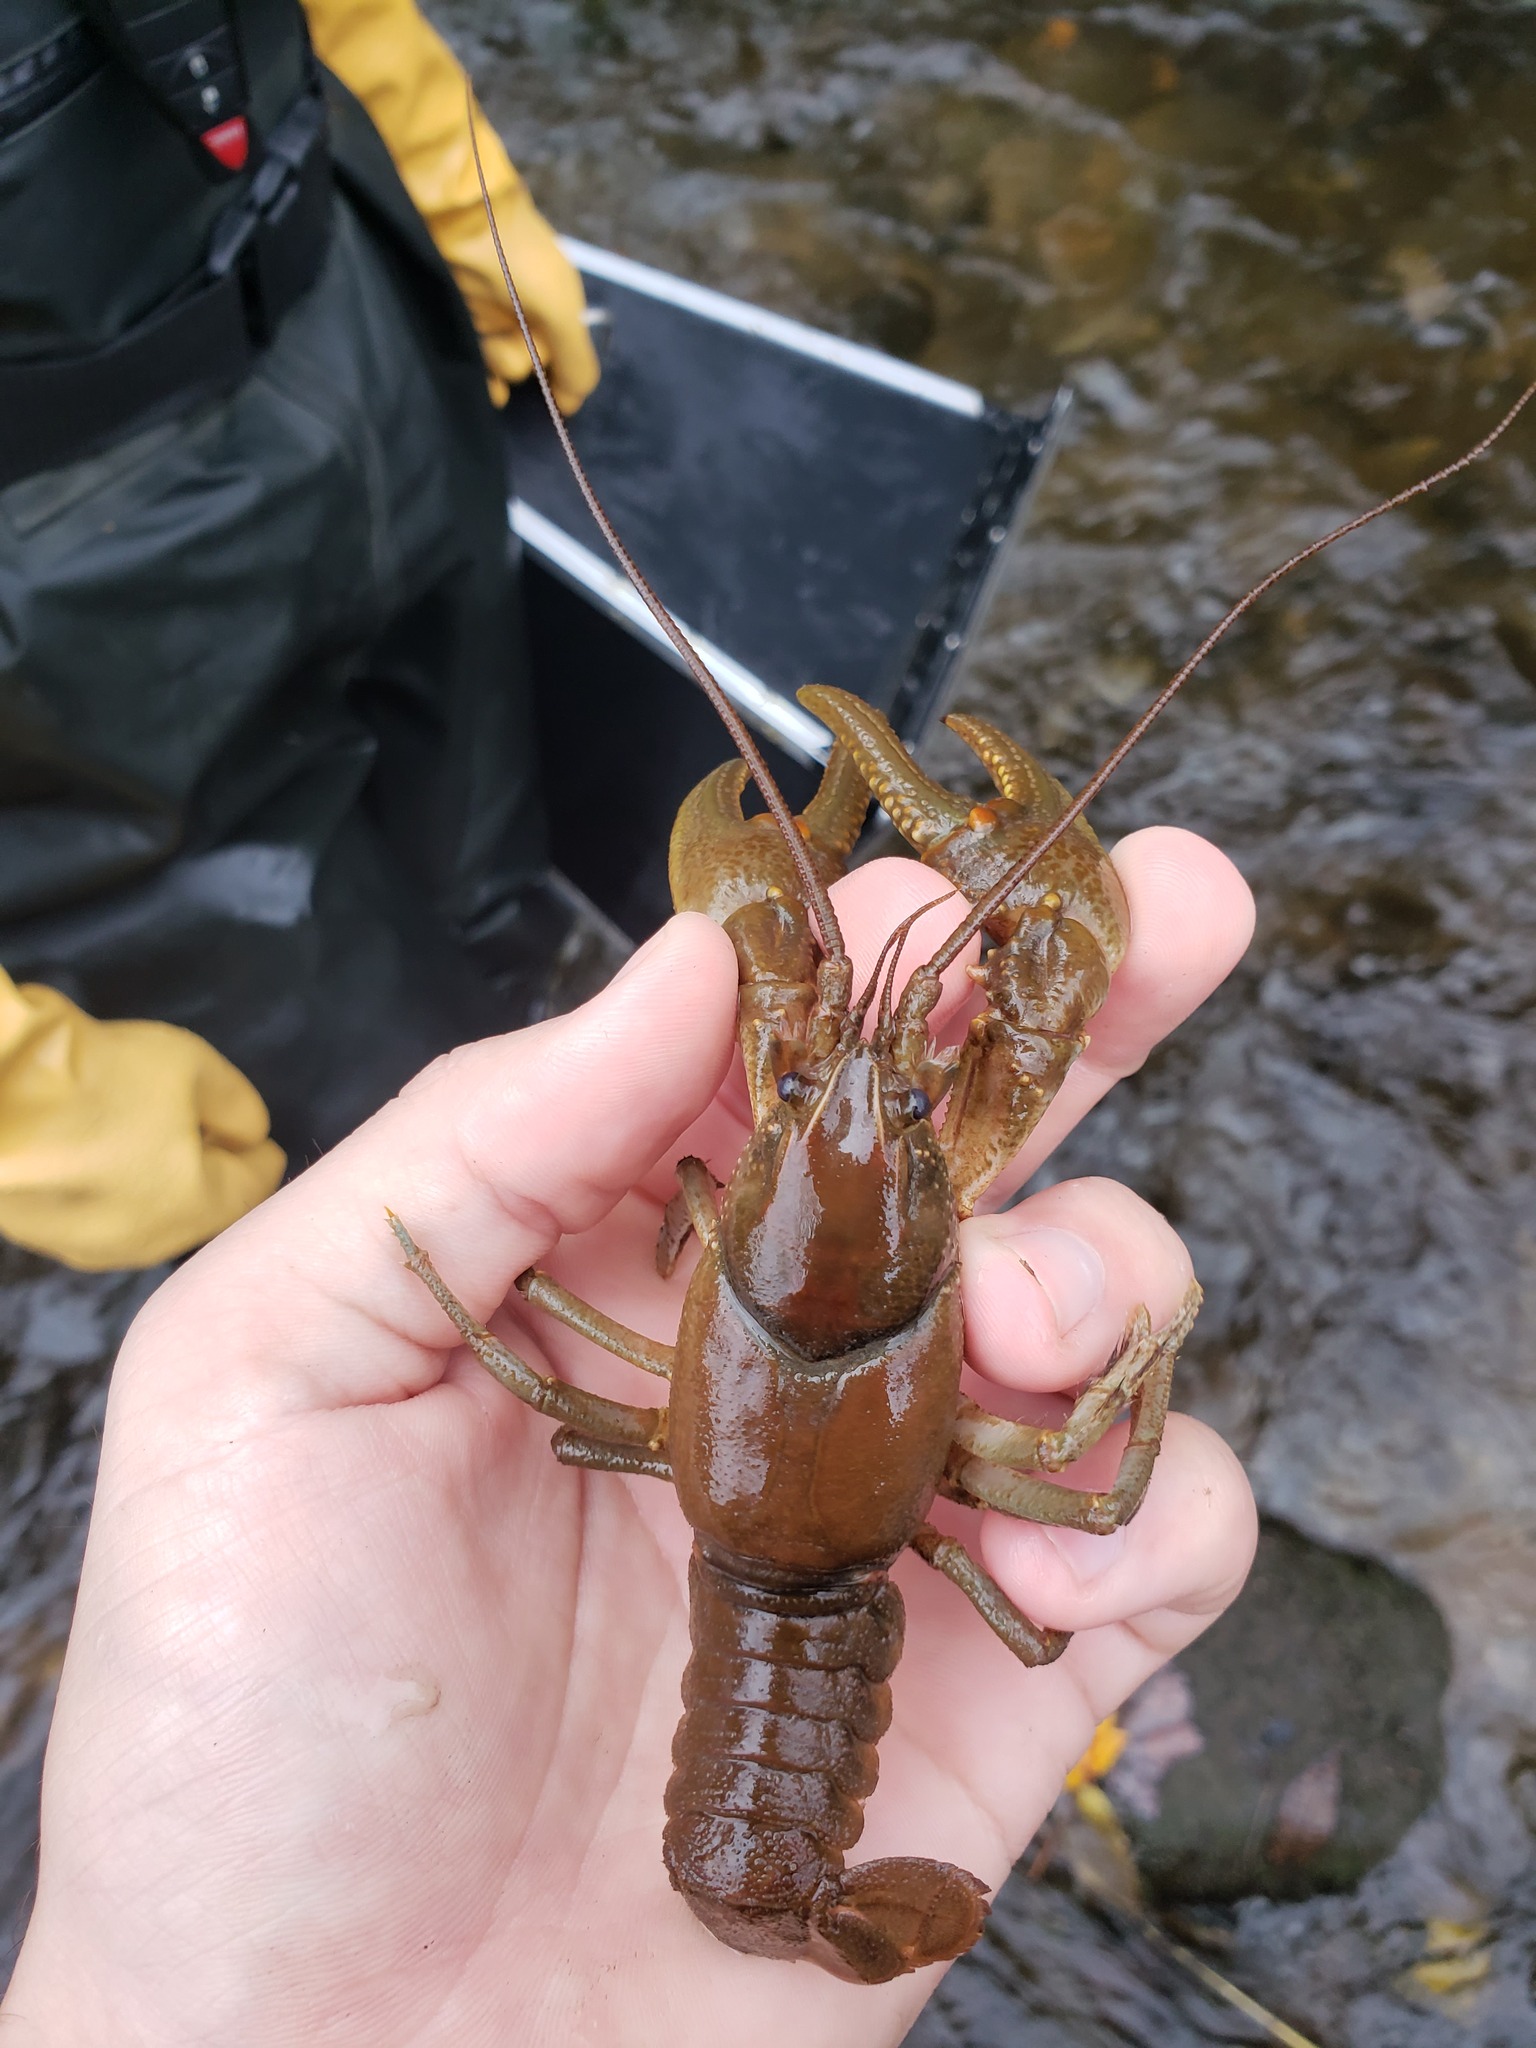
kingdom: Animalia
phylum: Arthropoda
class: Malacostraca
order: Decapoda
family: Cambaridae
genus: Cambarus
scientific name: Cambarus robustus
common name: Big water crayfish
